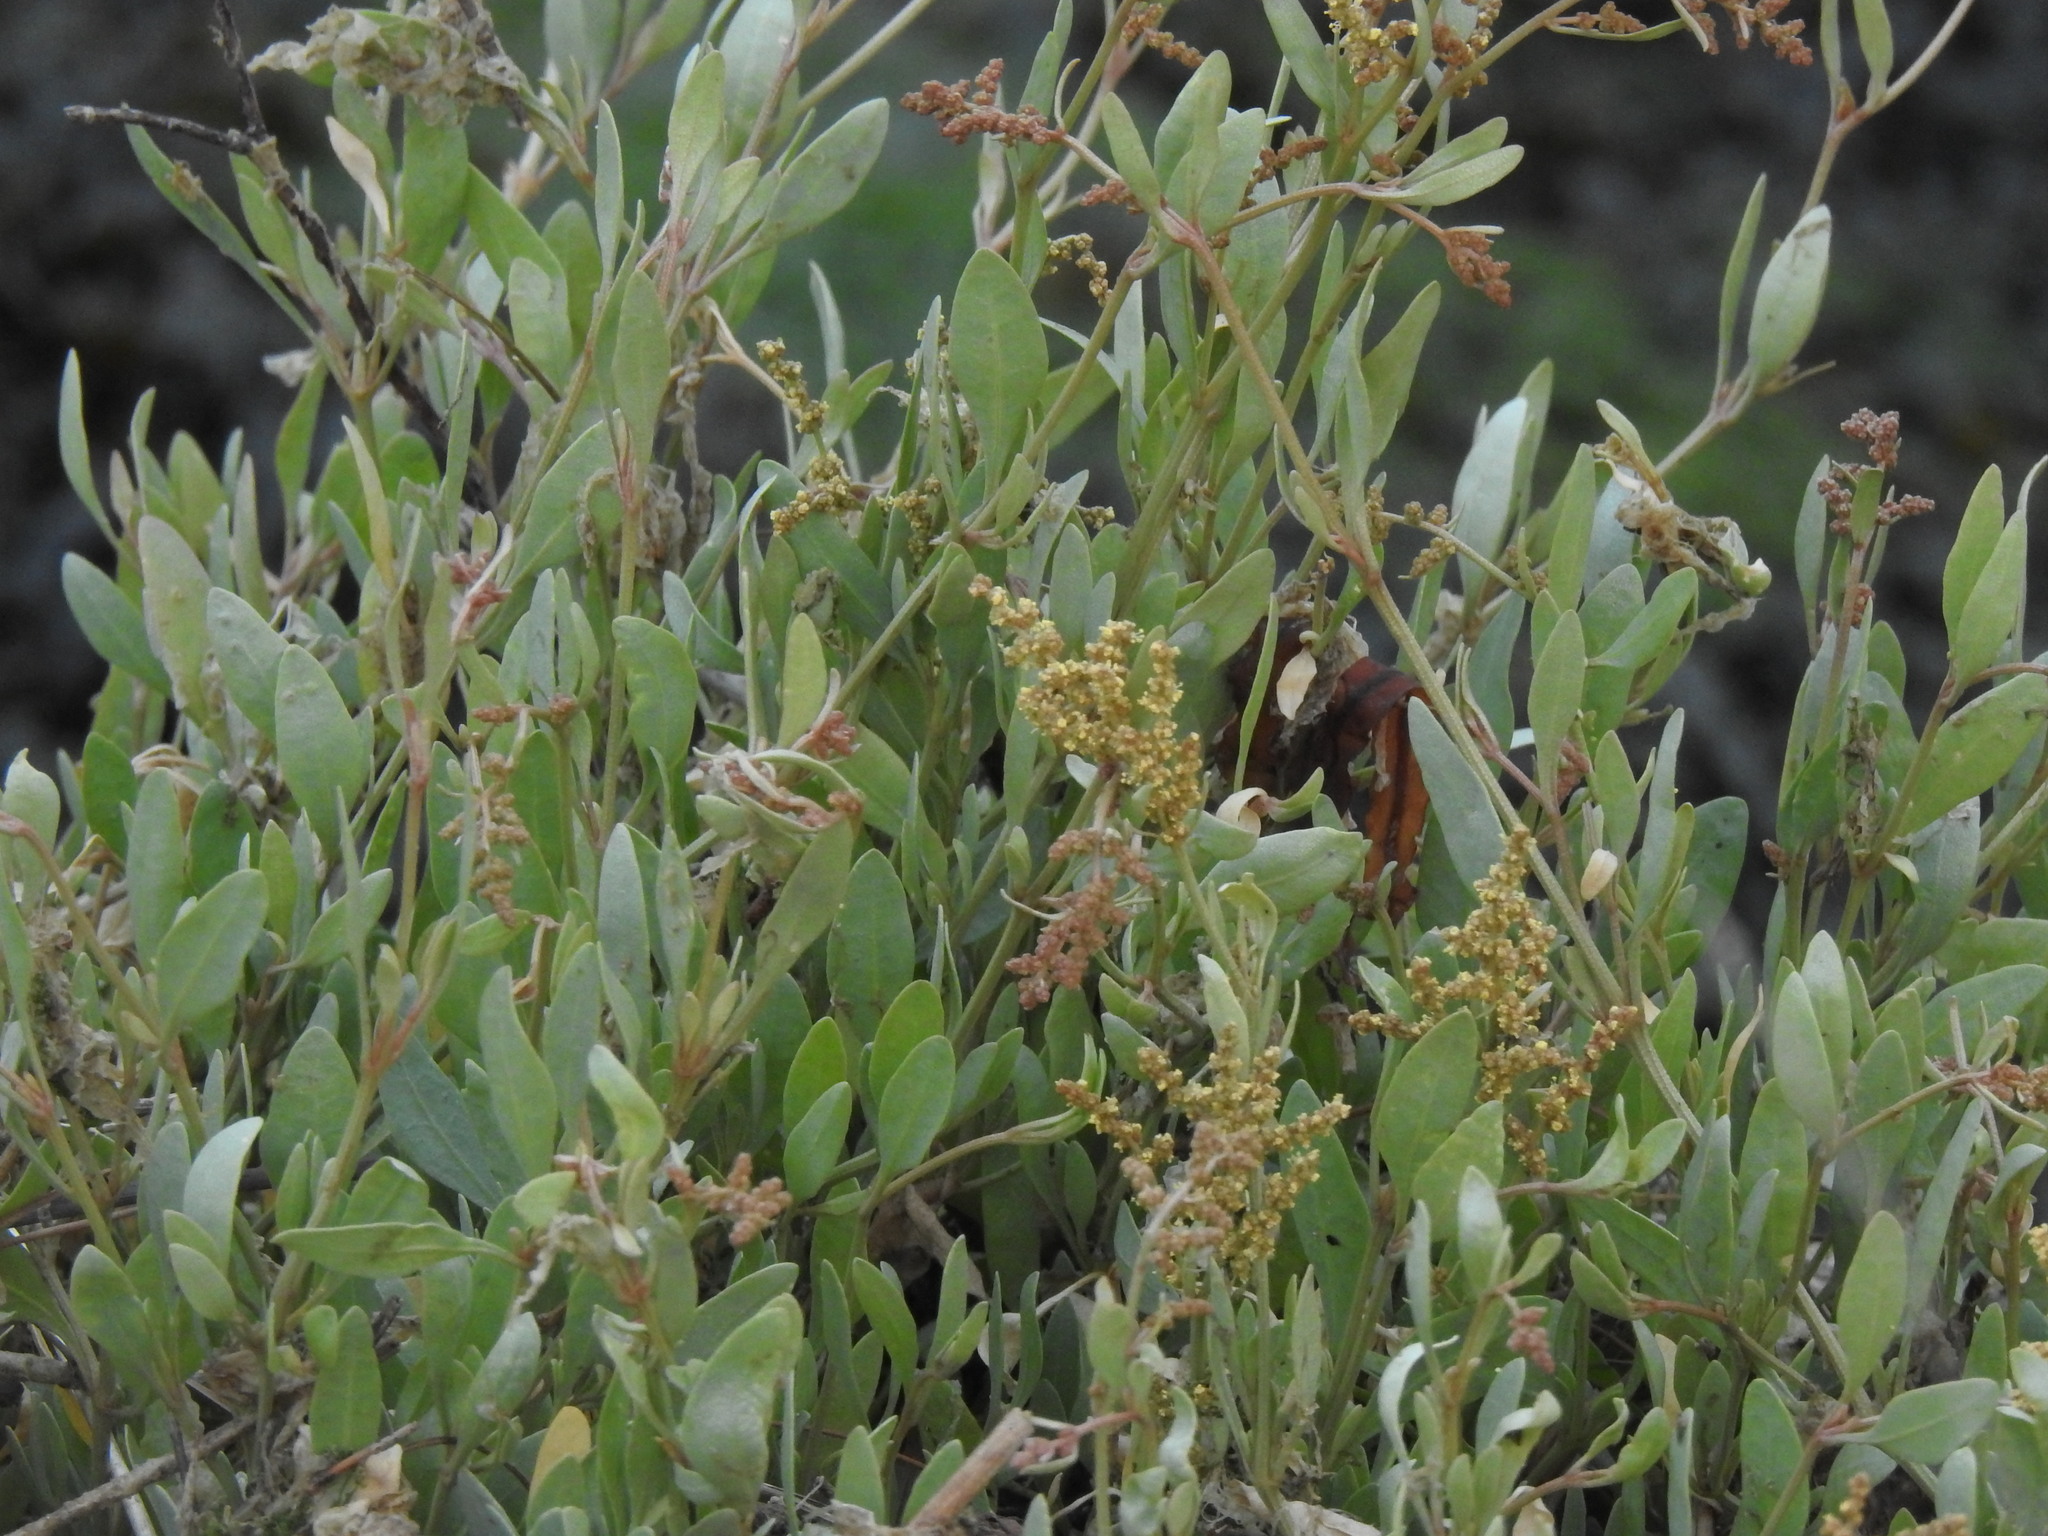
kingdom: Plantae
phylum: Tracheophyta
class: Magnoliopsida
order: Caryophyllales
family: Amaranthaceae
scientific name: Amaranthaceae
